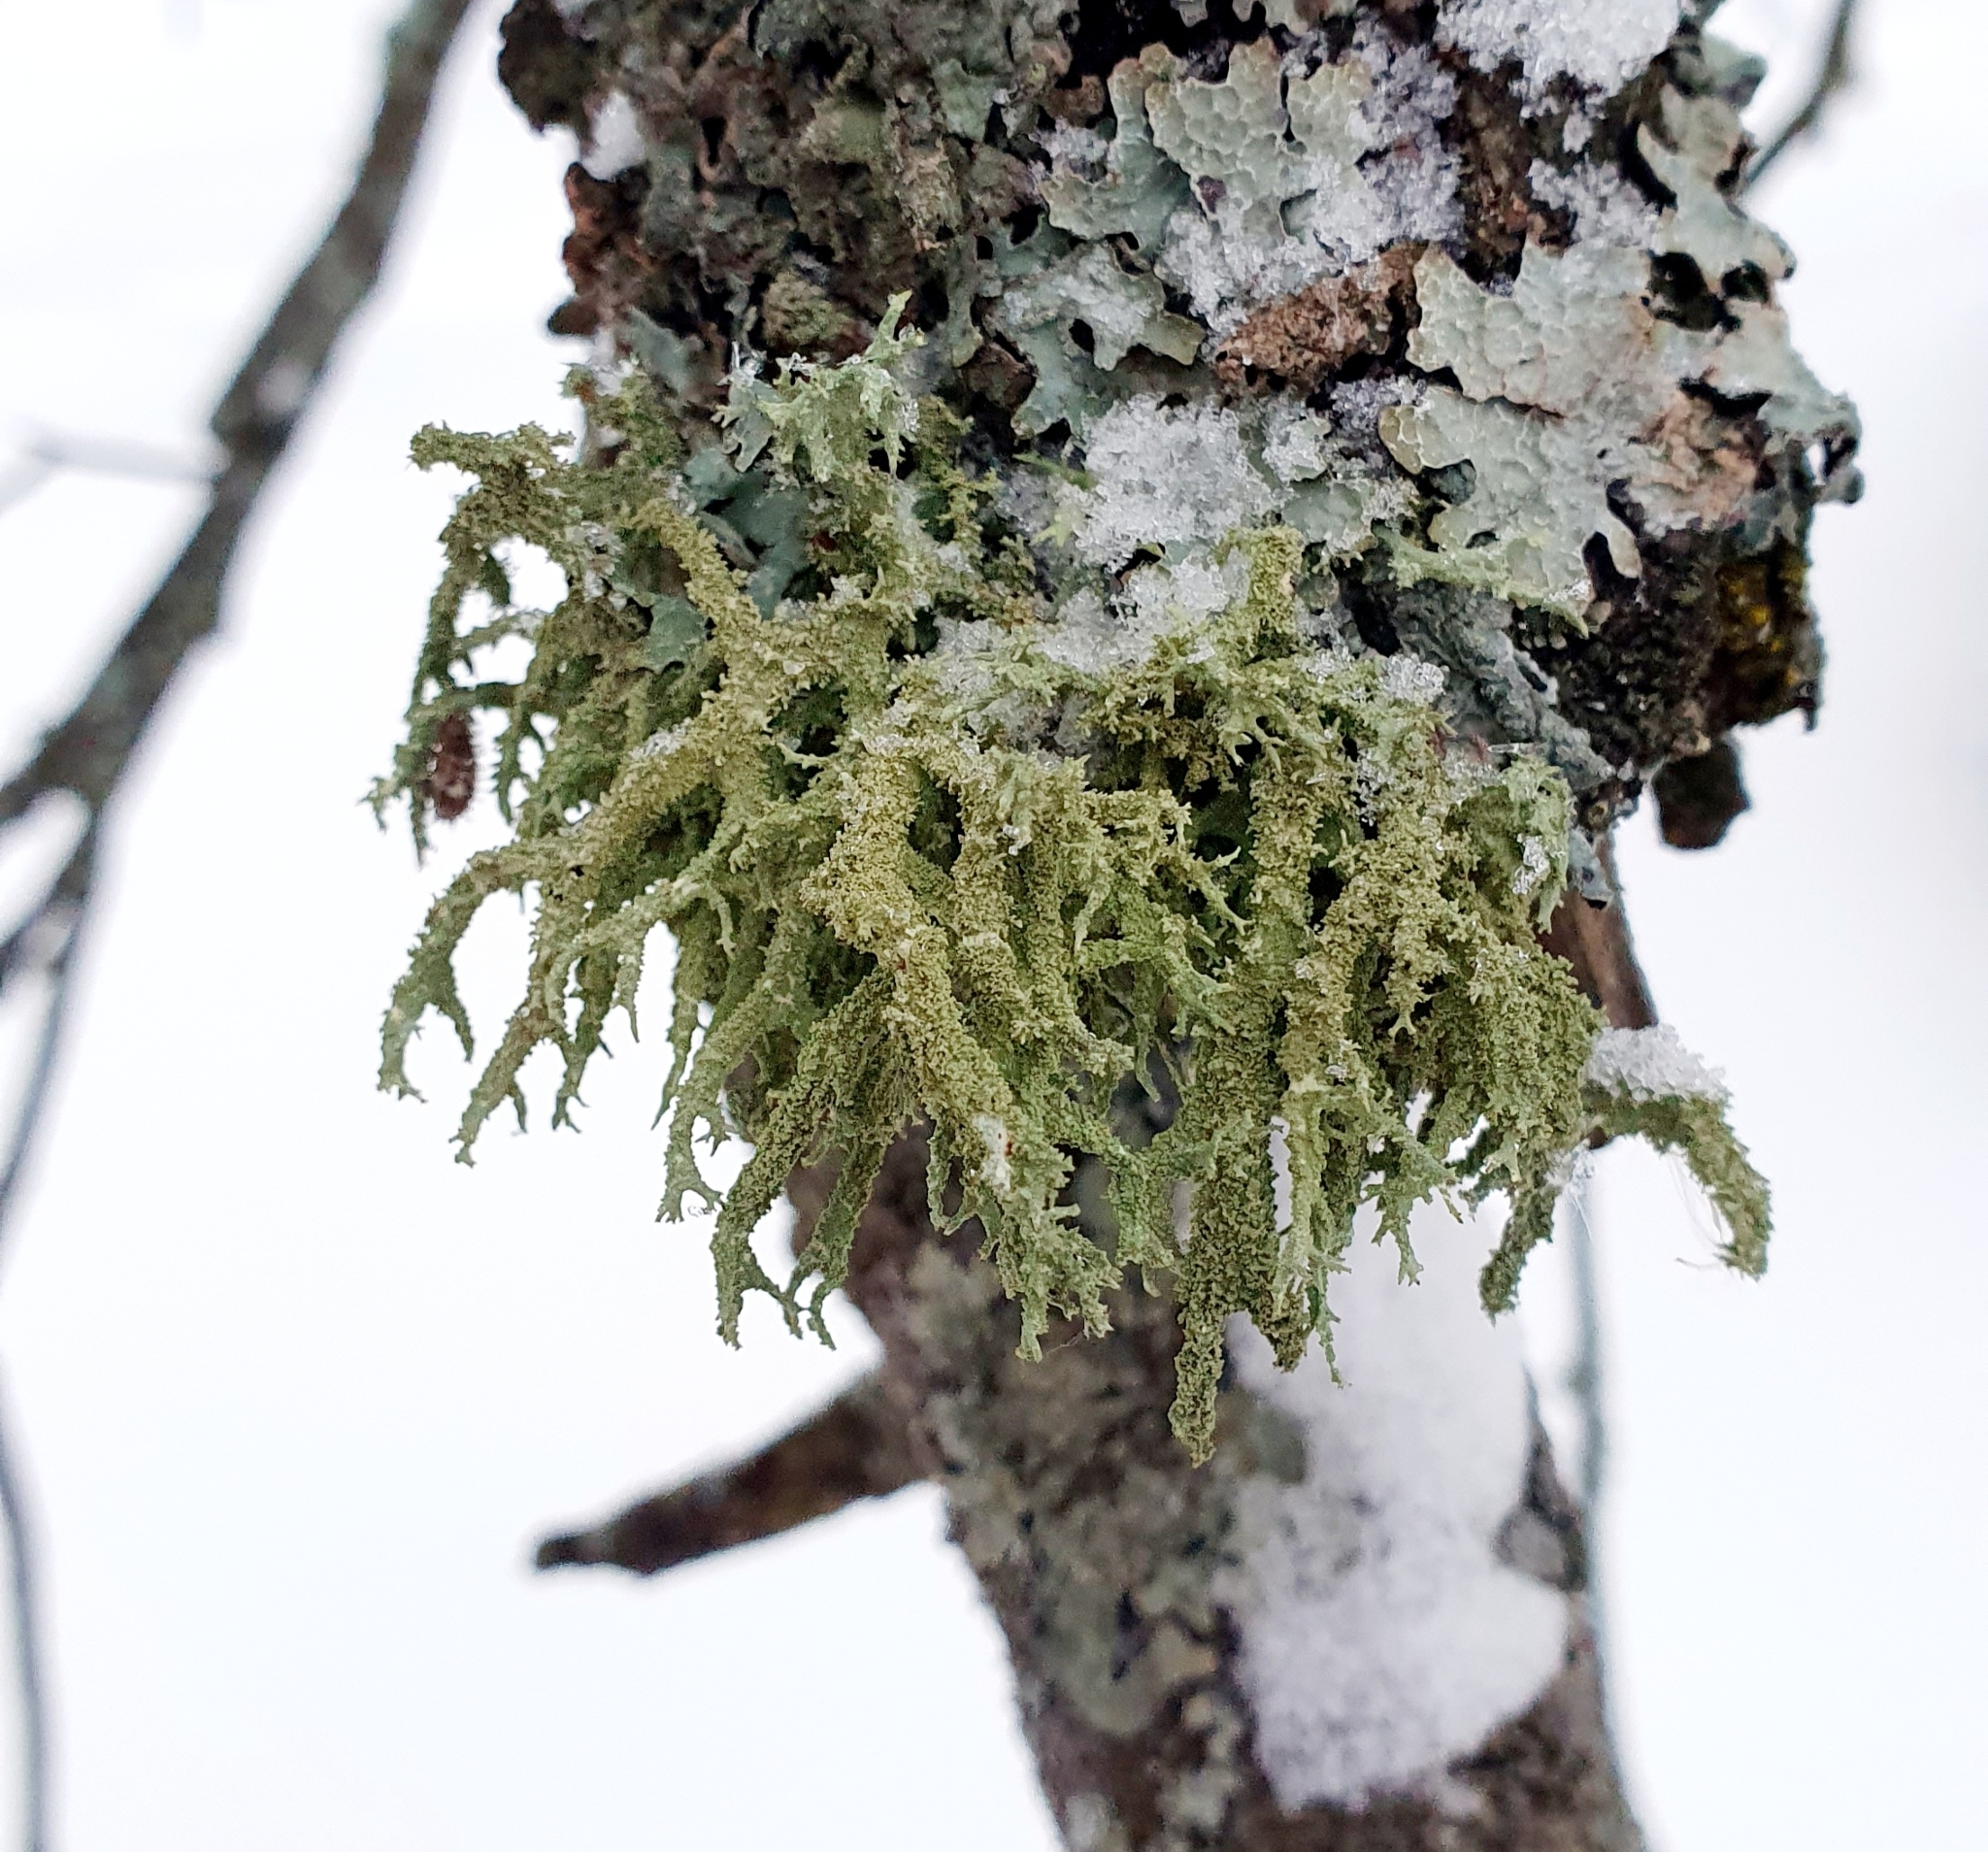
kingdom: Fungi
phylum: Ascomycota
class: Lecanoromycetes
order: Lecanorales
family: Parmeliaceae
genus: Evernia
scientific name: Evernia mesomorpha
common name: Boreal oak moss lichen
